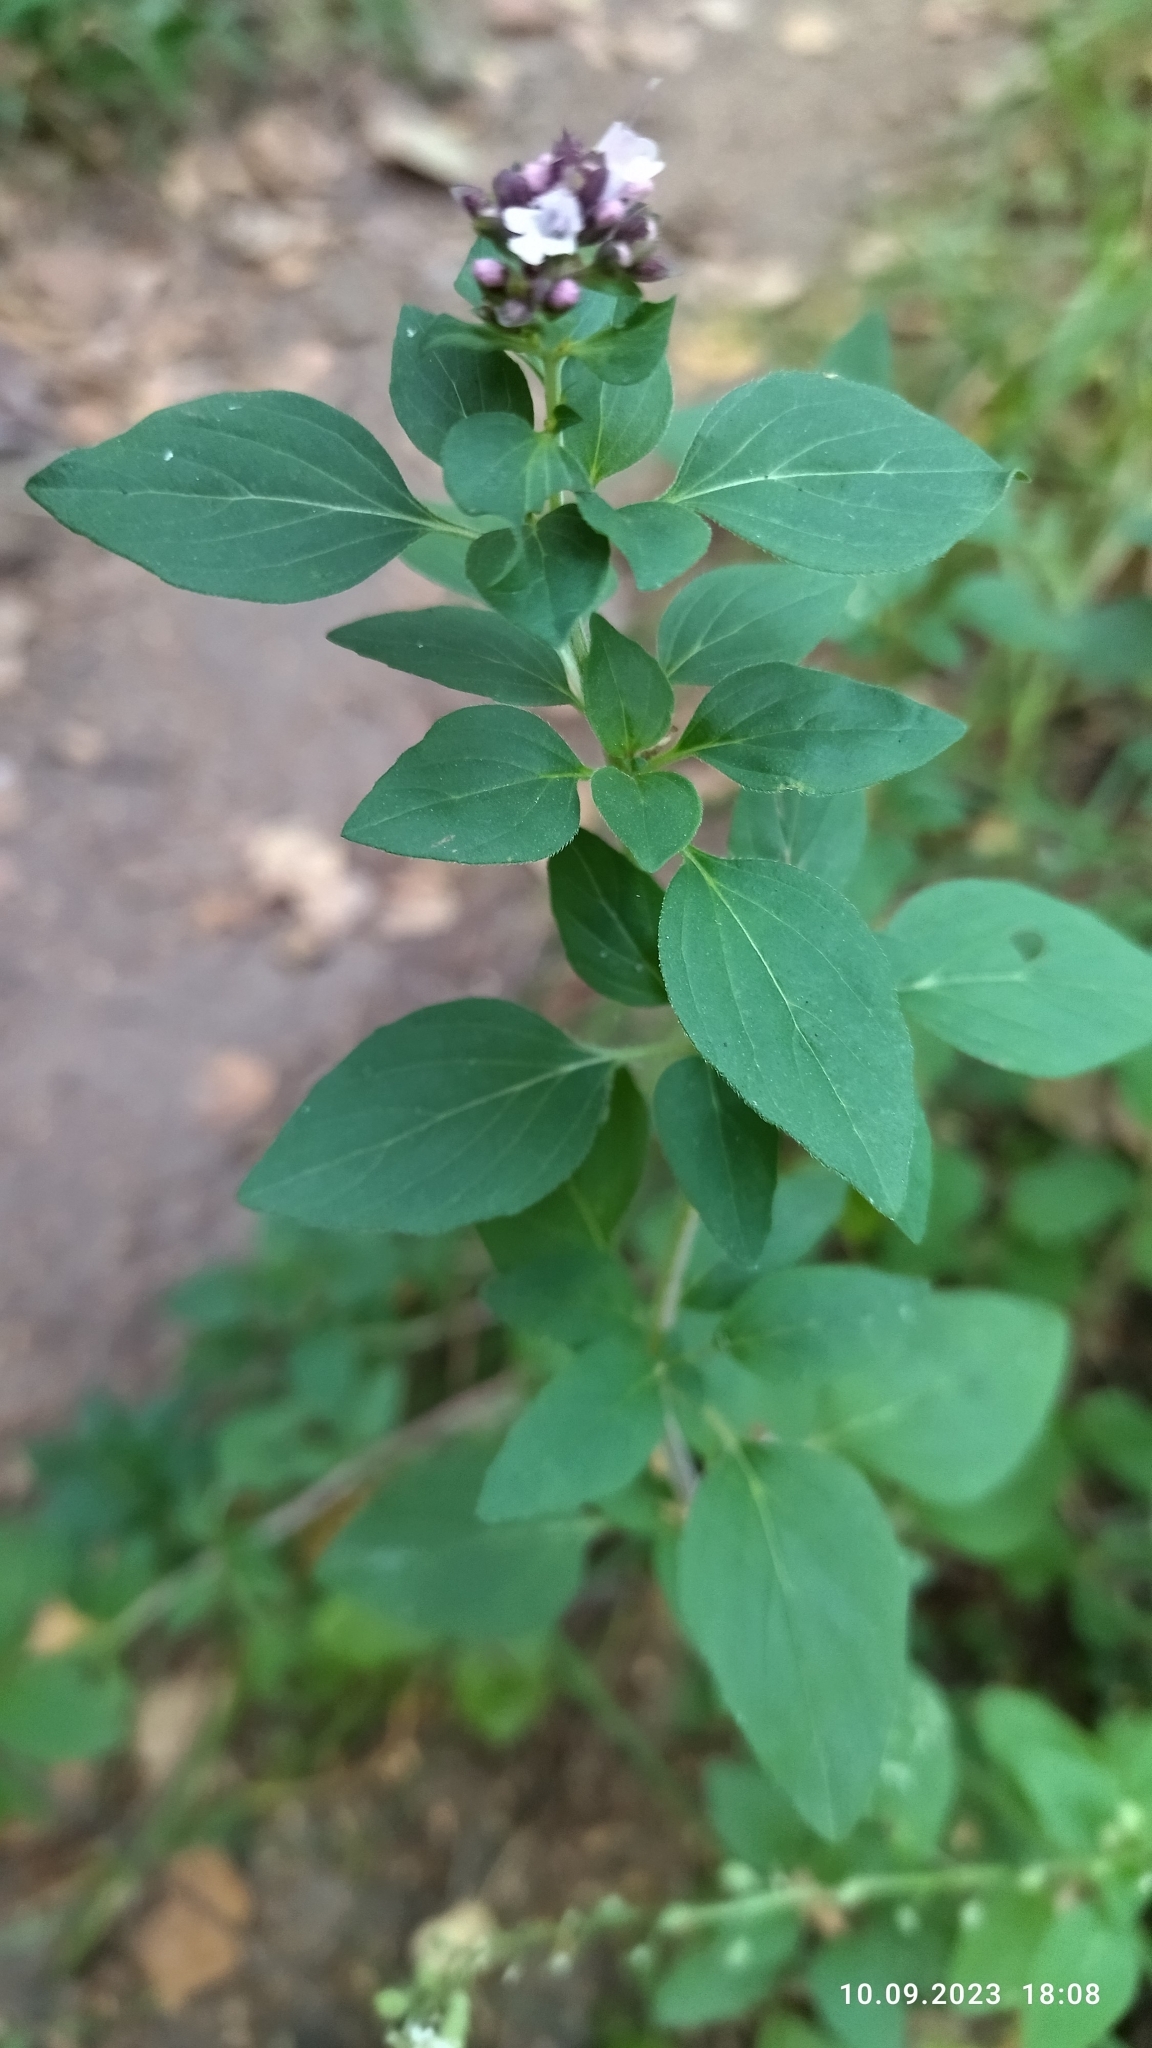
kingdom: Plantae
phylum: Tracheophyta
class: Magnoliopsida
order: Lamiales
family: Lamiaceae
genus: Origanum
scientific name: Origanum vulgare
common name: Wild marjoram
